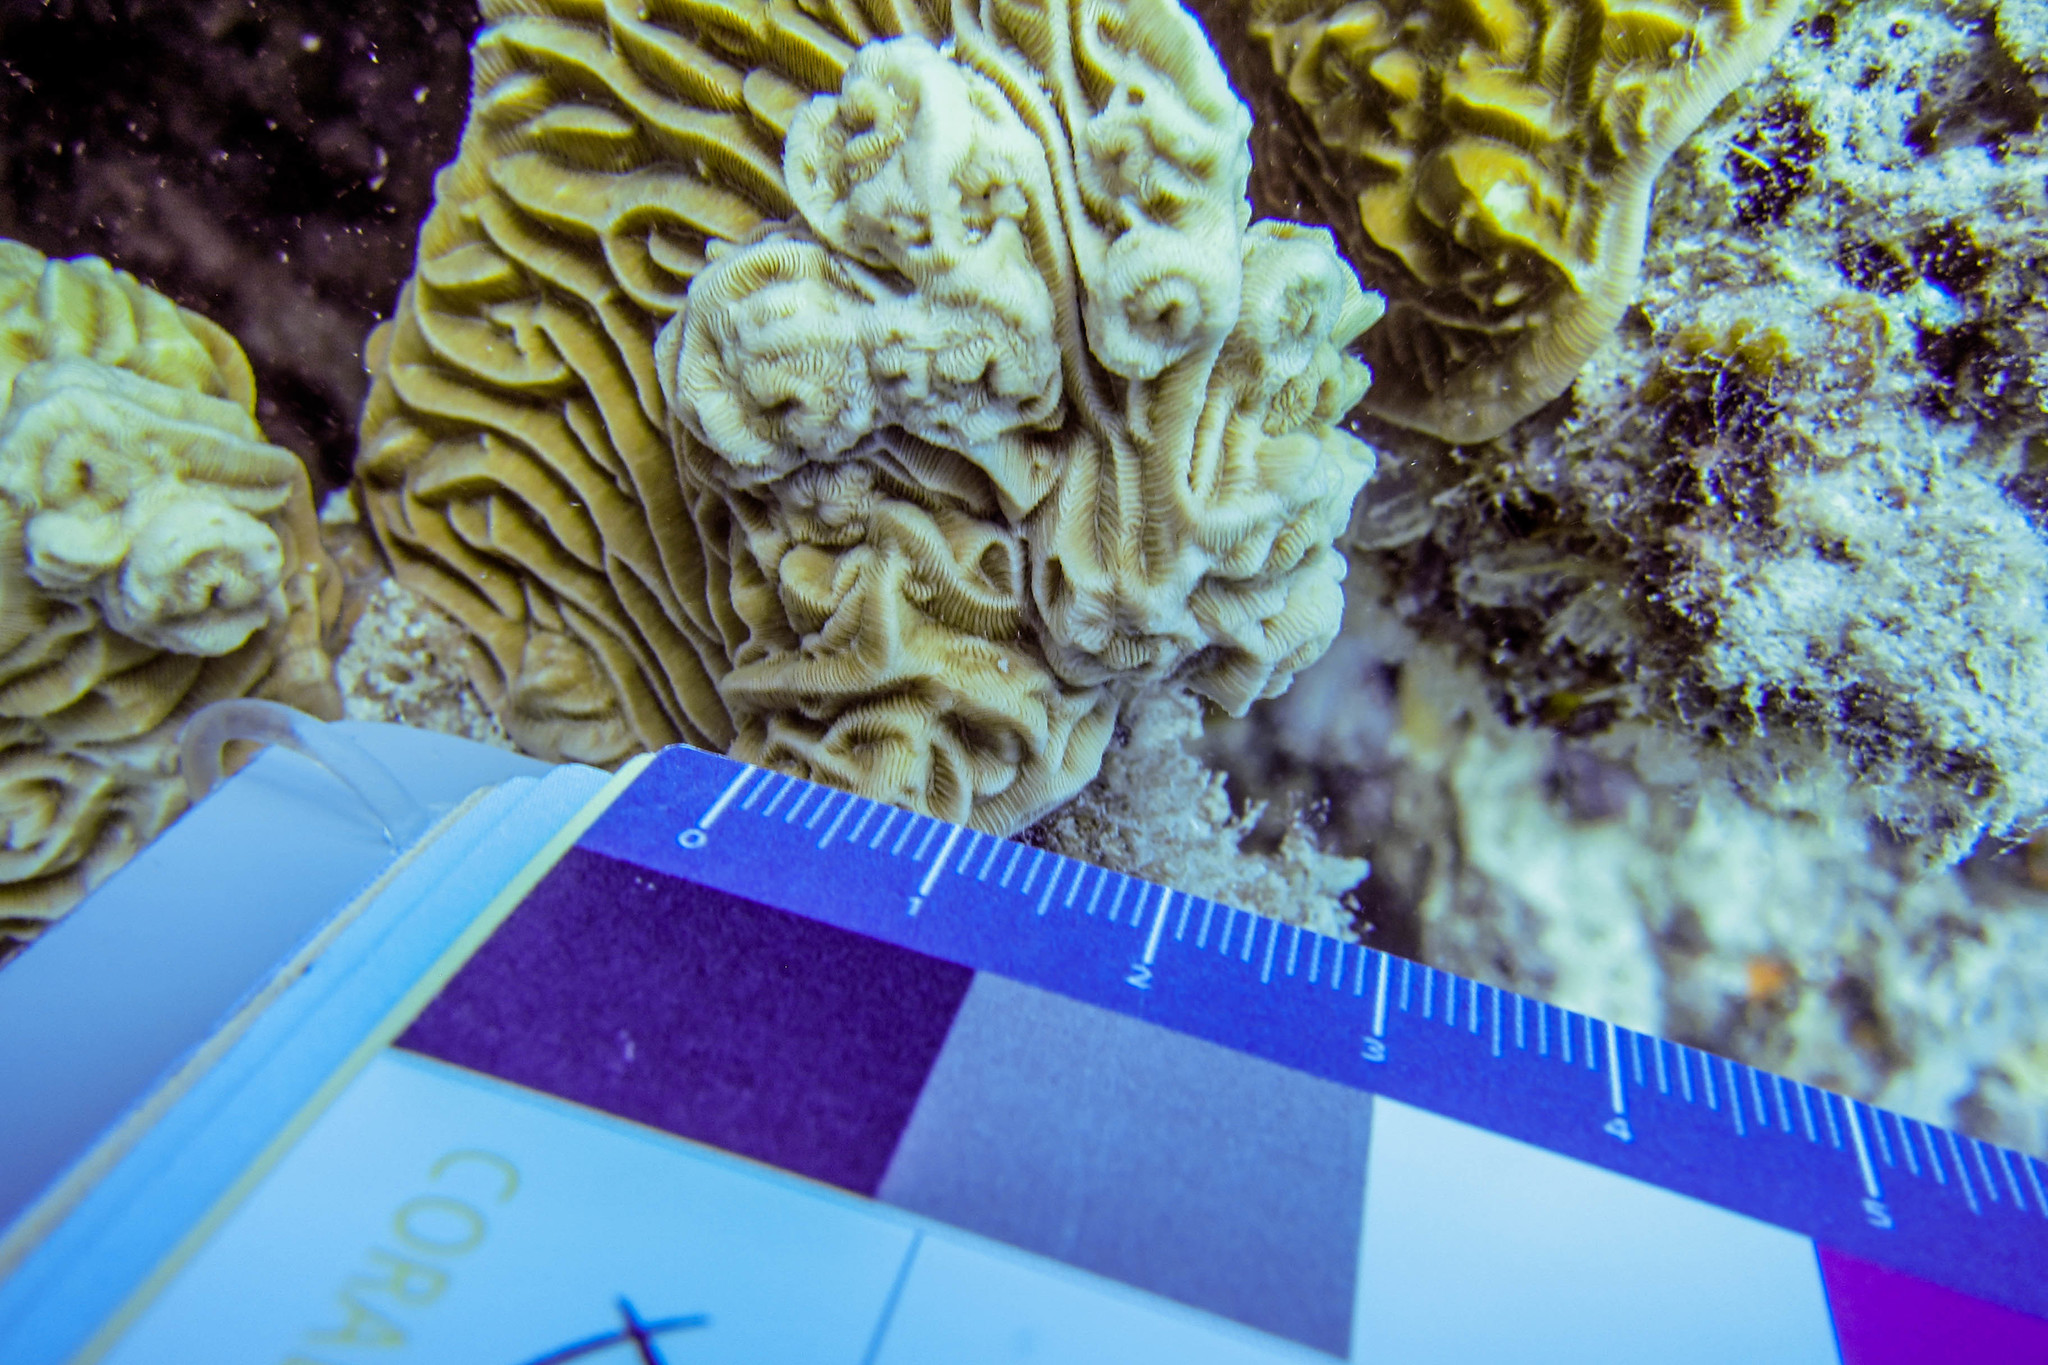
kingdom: Animalia
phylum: Cnidaria
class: Anthozoa
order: Scleractinia
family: Pachyseridae
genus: Pachyseris
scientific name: Pachyseris rugosa
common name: Serpent coral
